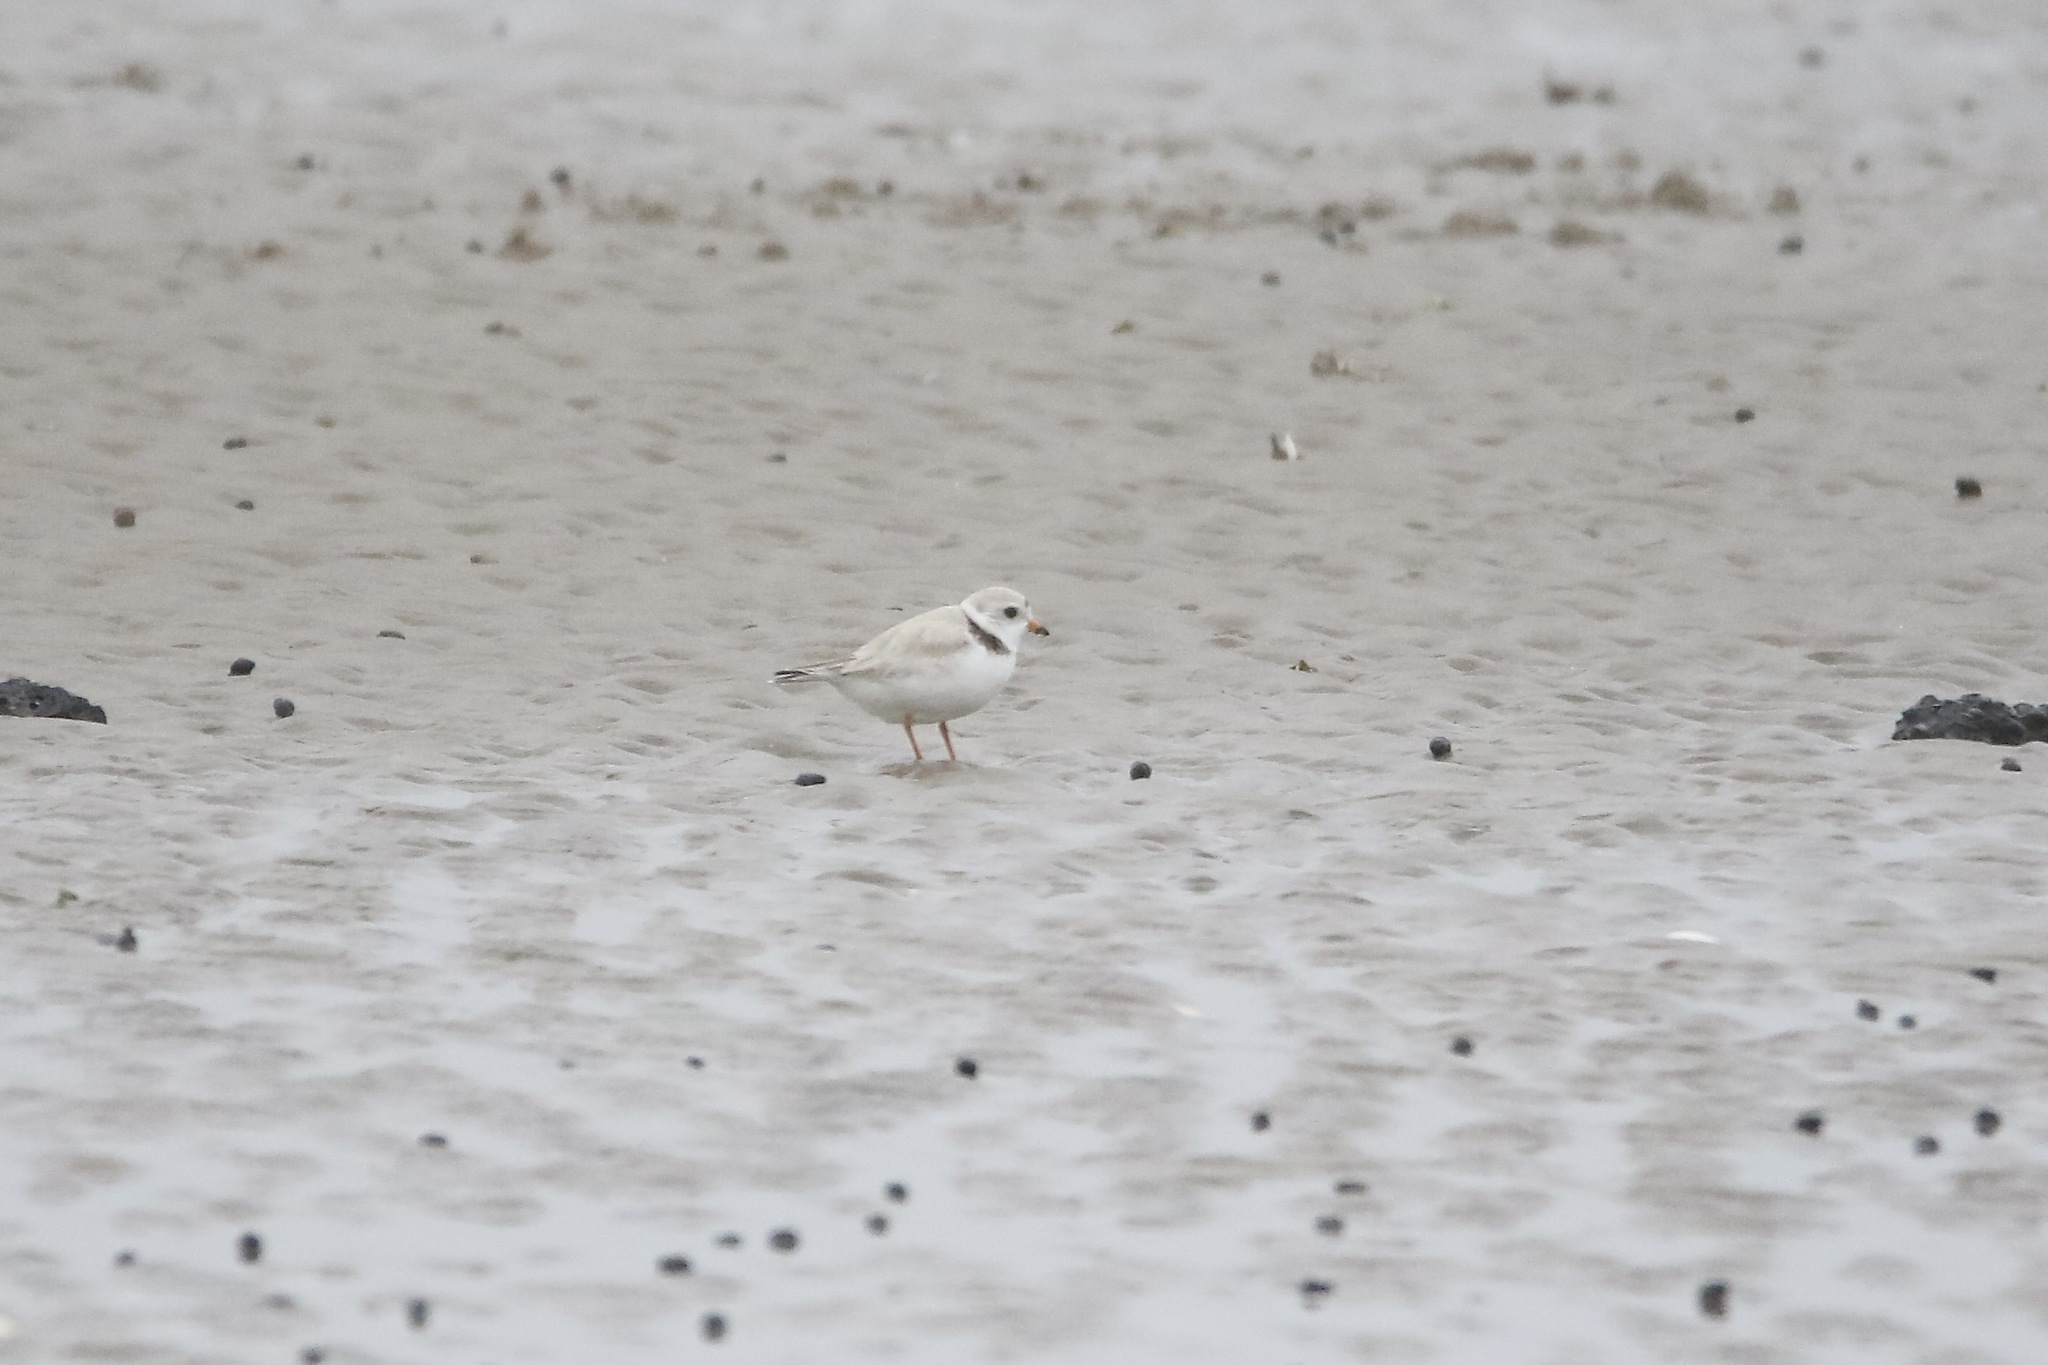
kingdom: Animalia
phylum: Chordata
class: Aves
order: Charadriiformes
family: Charadriidae
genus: Charadrius
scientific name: Charadrius melodus
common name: Piping plover
